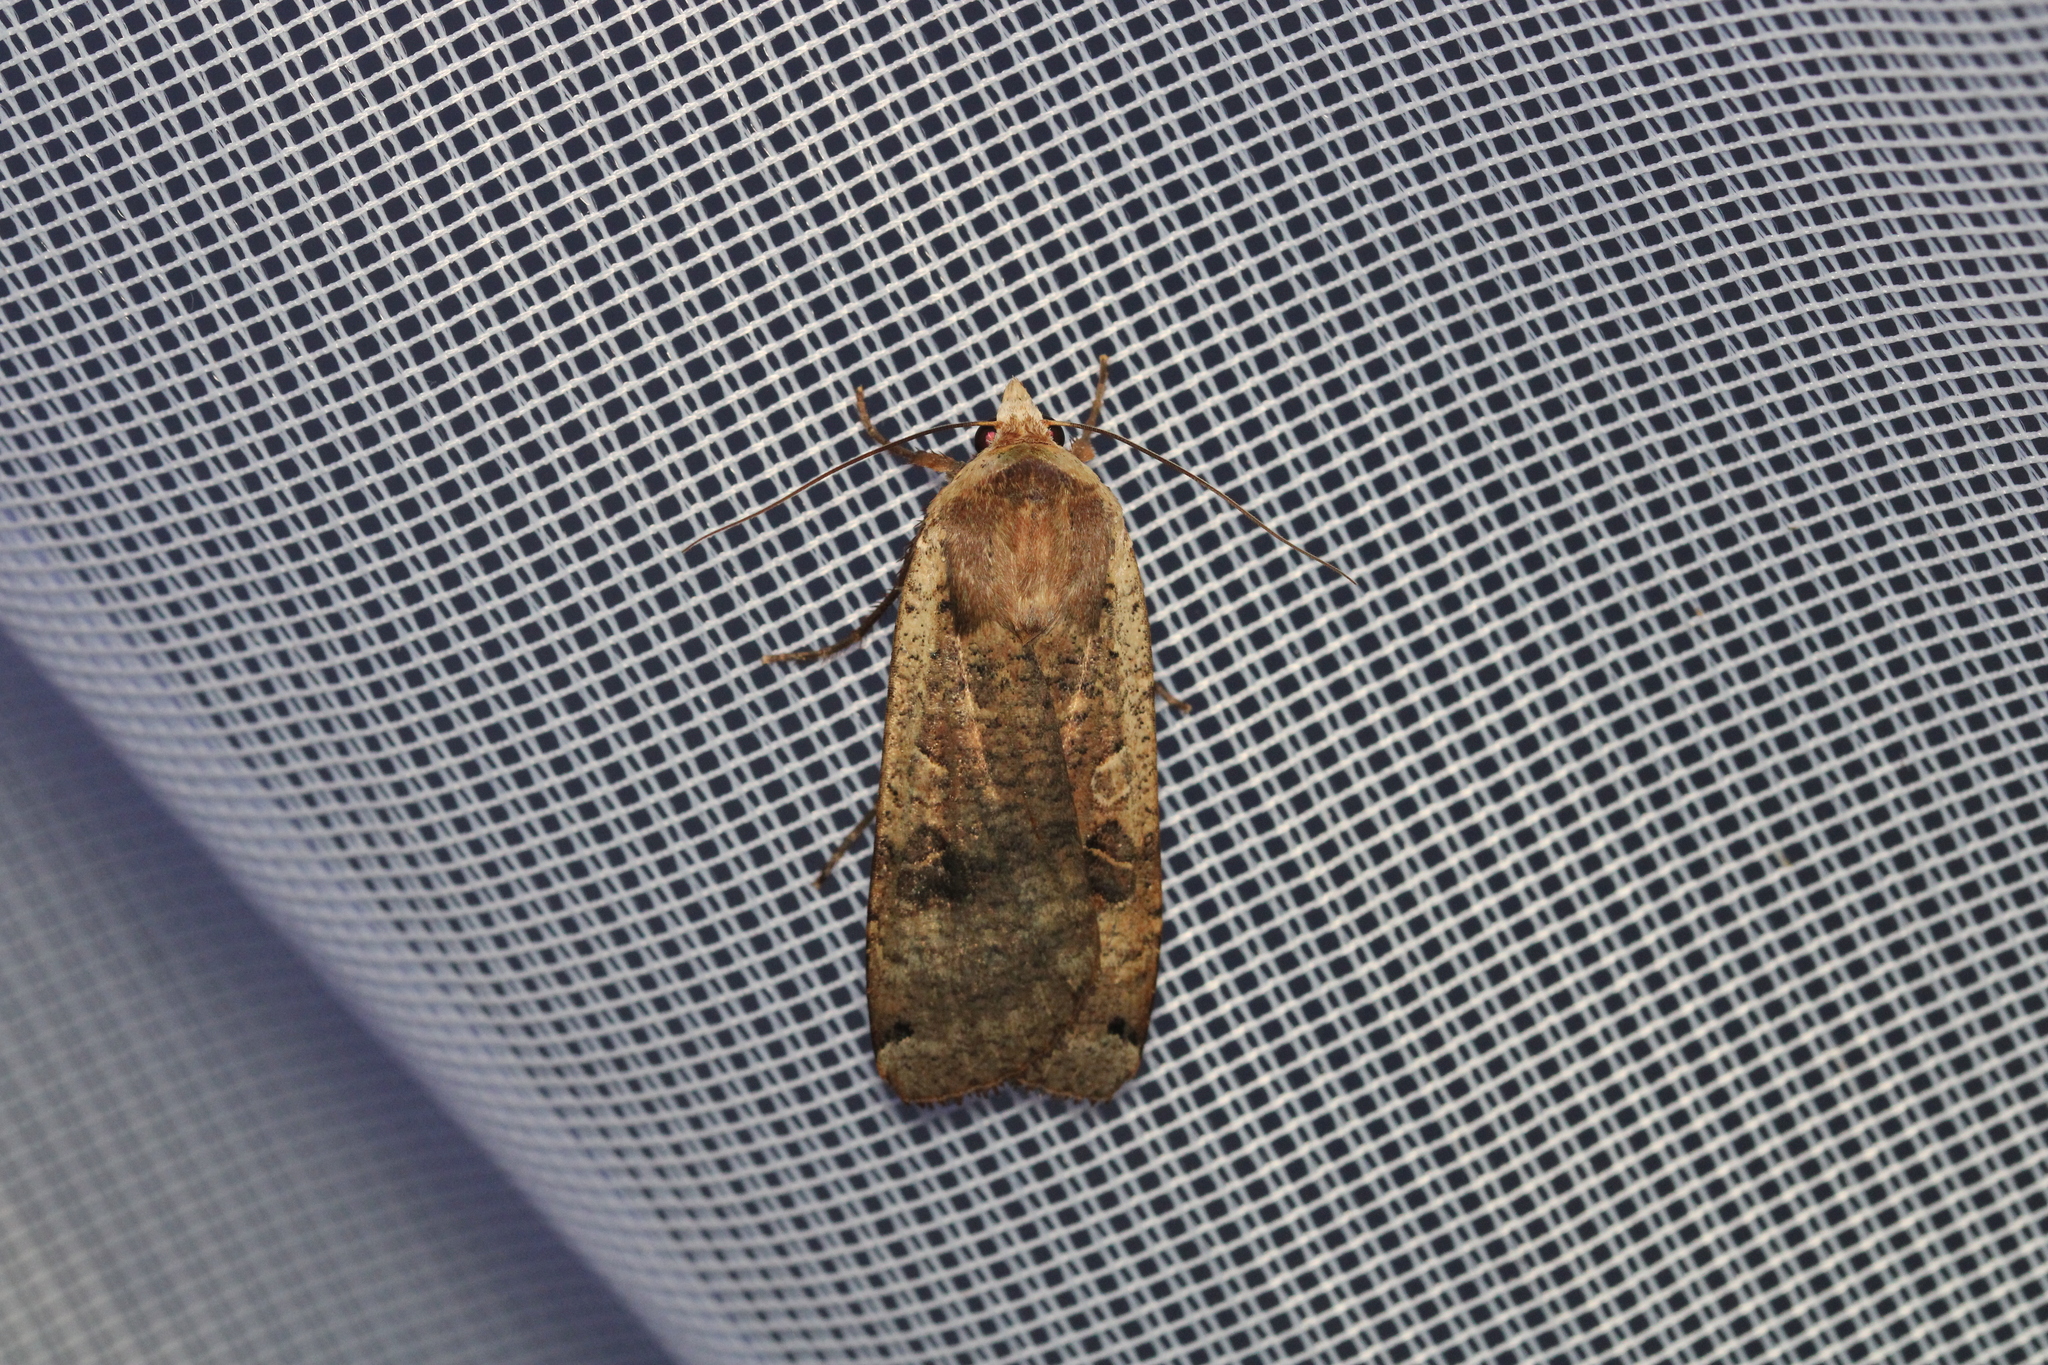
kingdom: Animalia
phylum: Arthropoda
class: Insecta
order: Lepidoptera
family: Noctuidae
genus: Noctua
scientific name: Noctua pronuba
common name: Large yellow underwing
